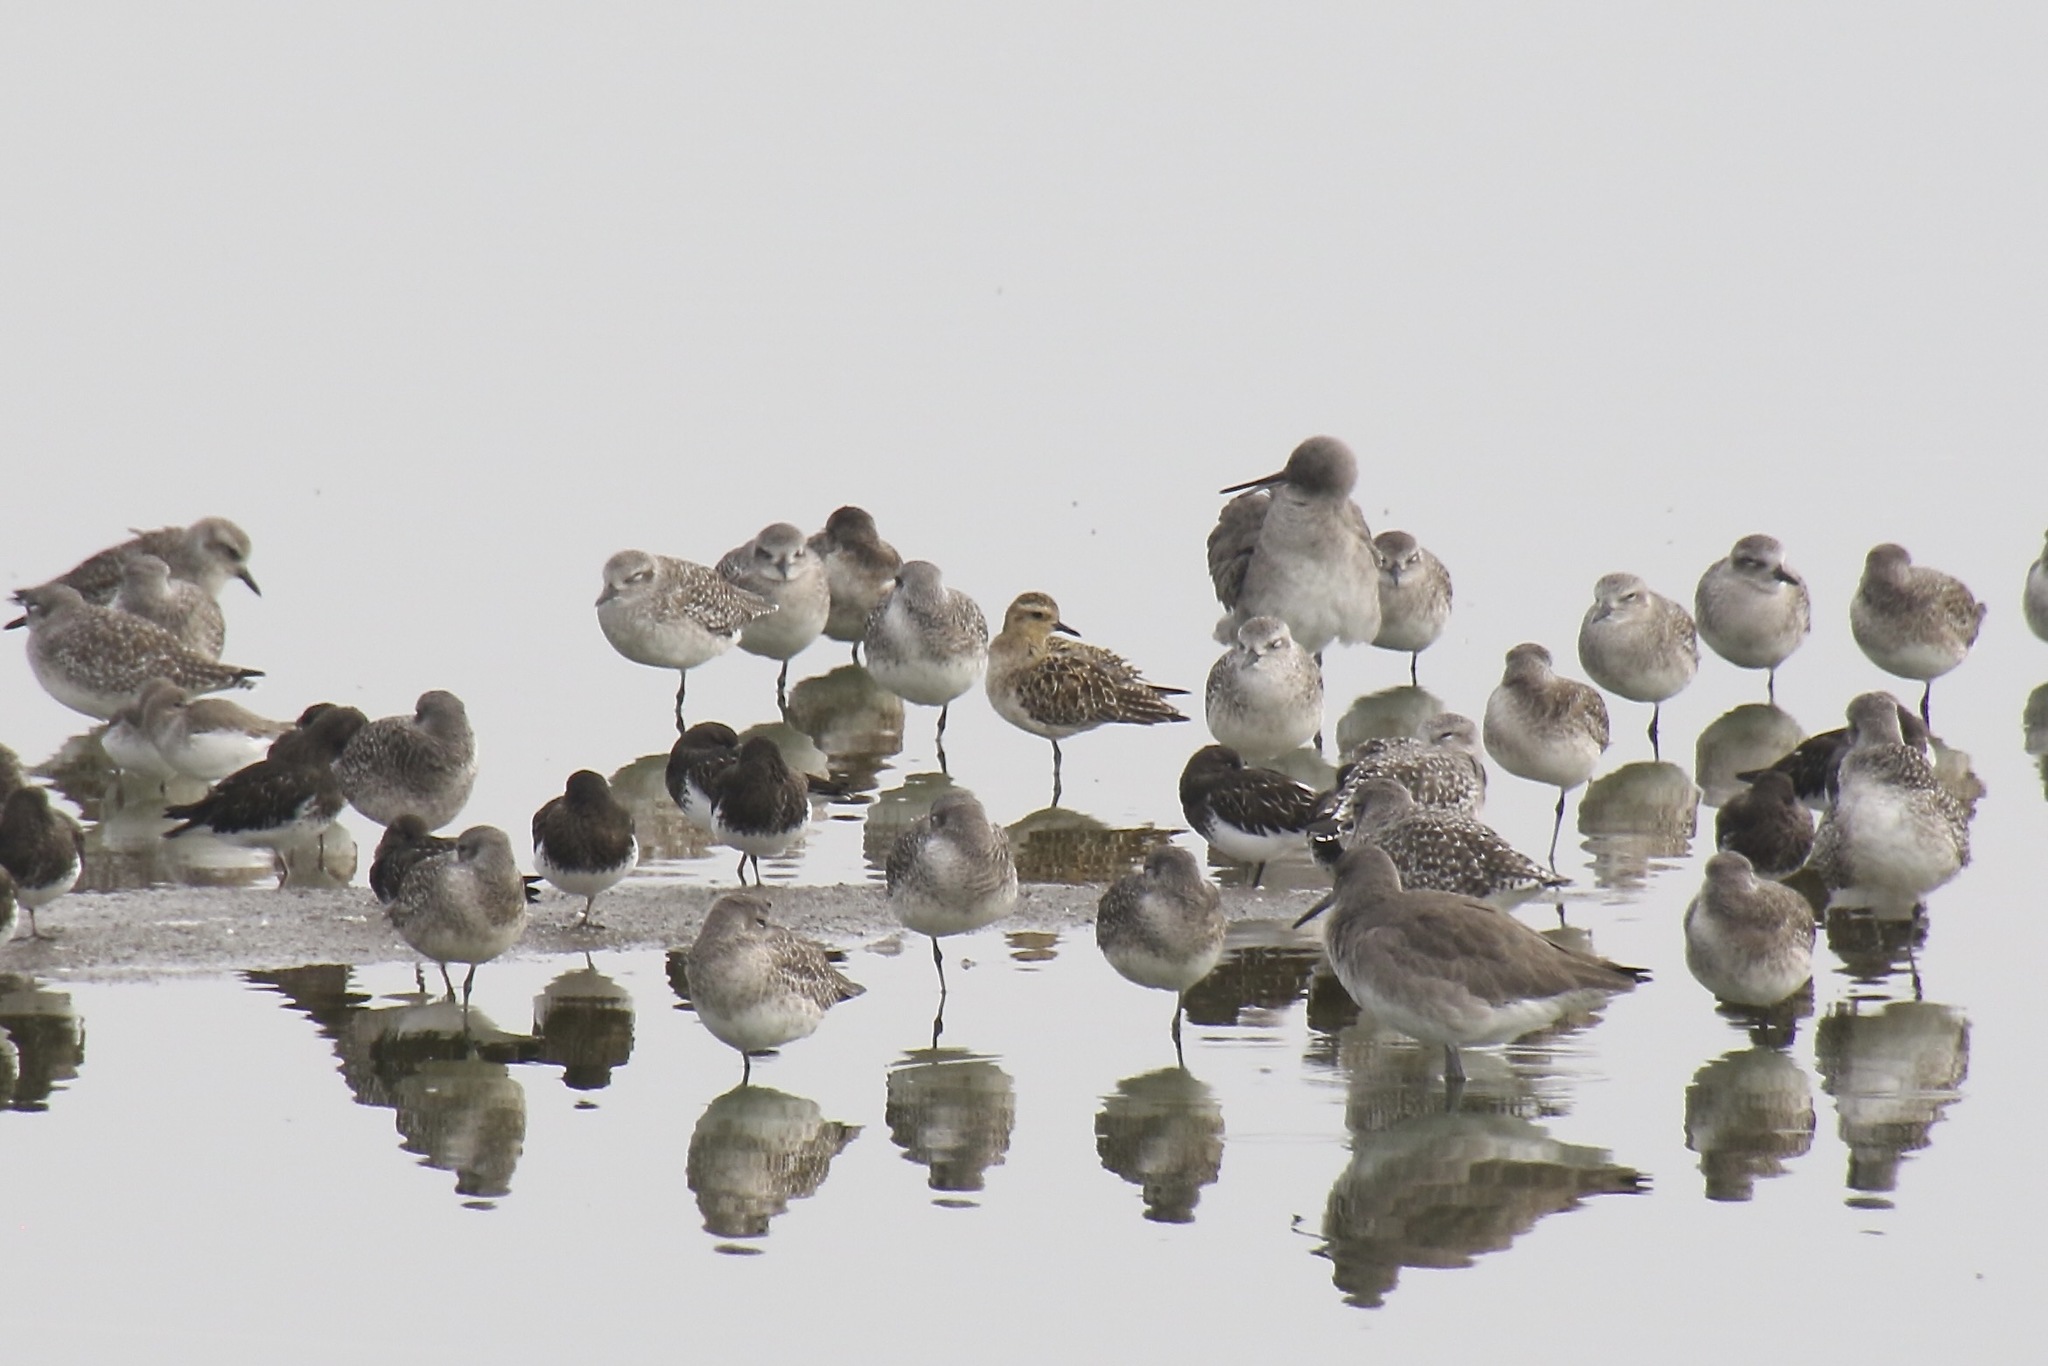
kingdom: Animalia
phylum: Chordata
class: Aves
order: Charadriiformes
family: Charadriidae
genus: Pluvialis
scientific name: Pluvialis fulva
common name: Pacific golden plover
